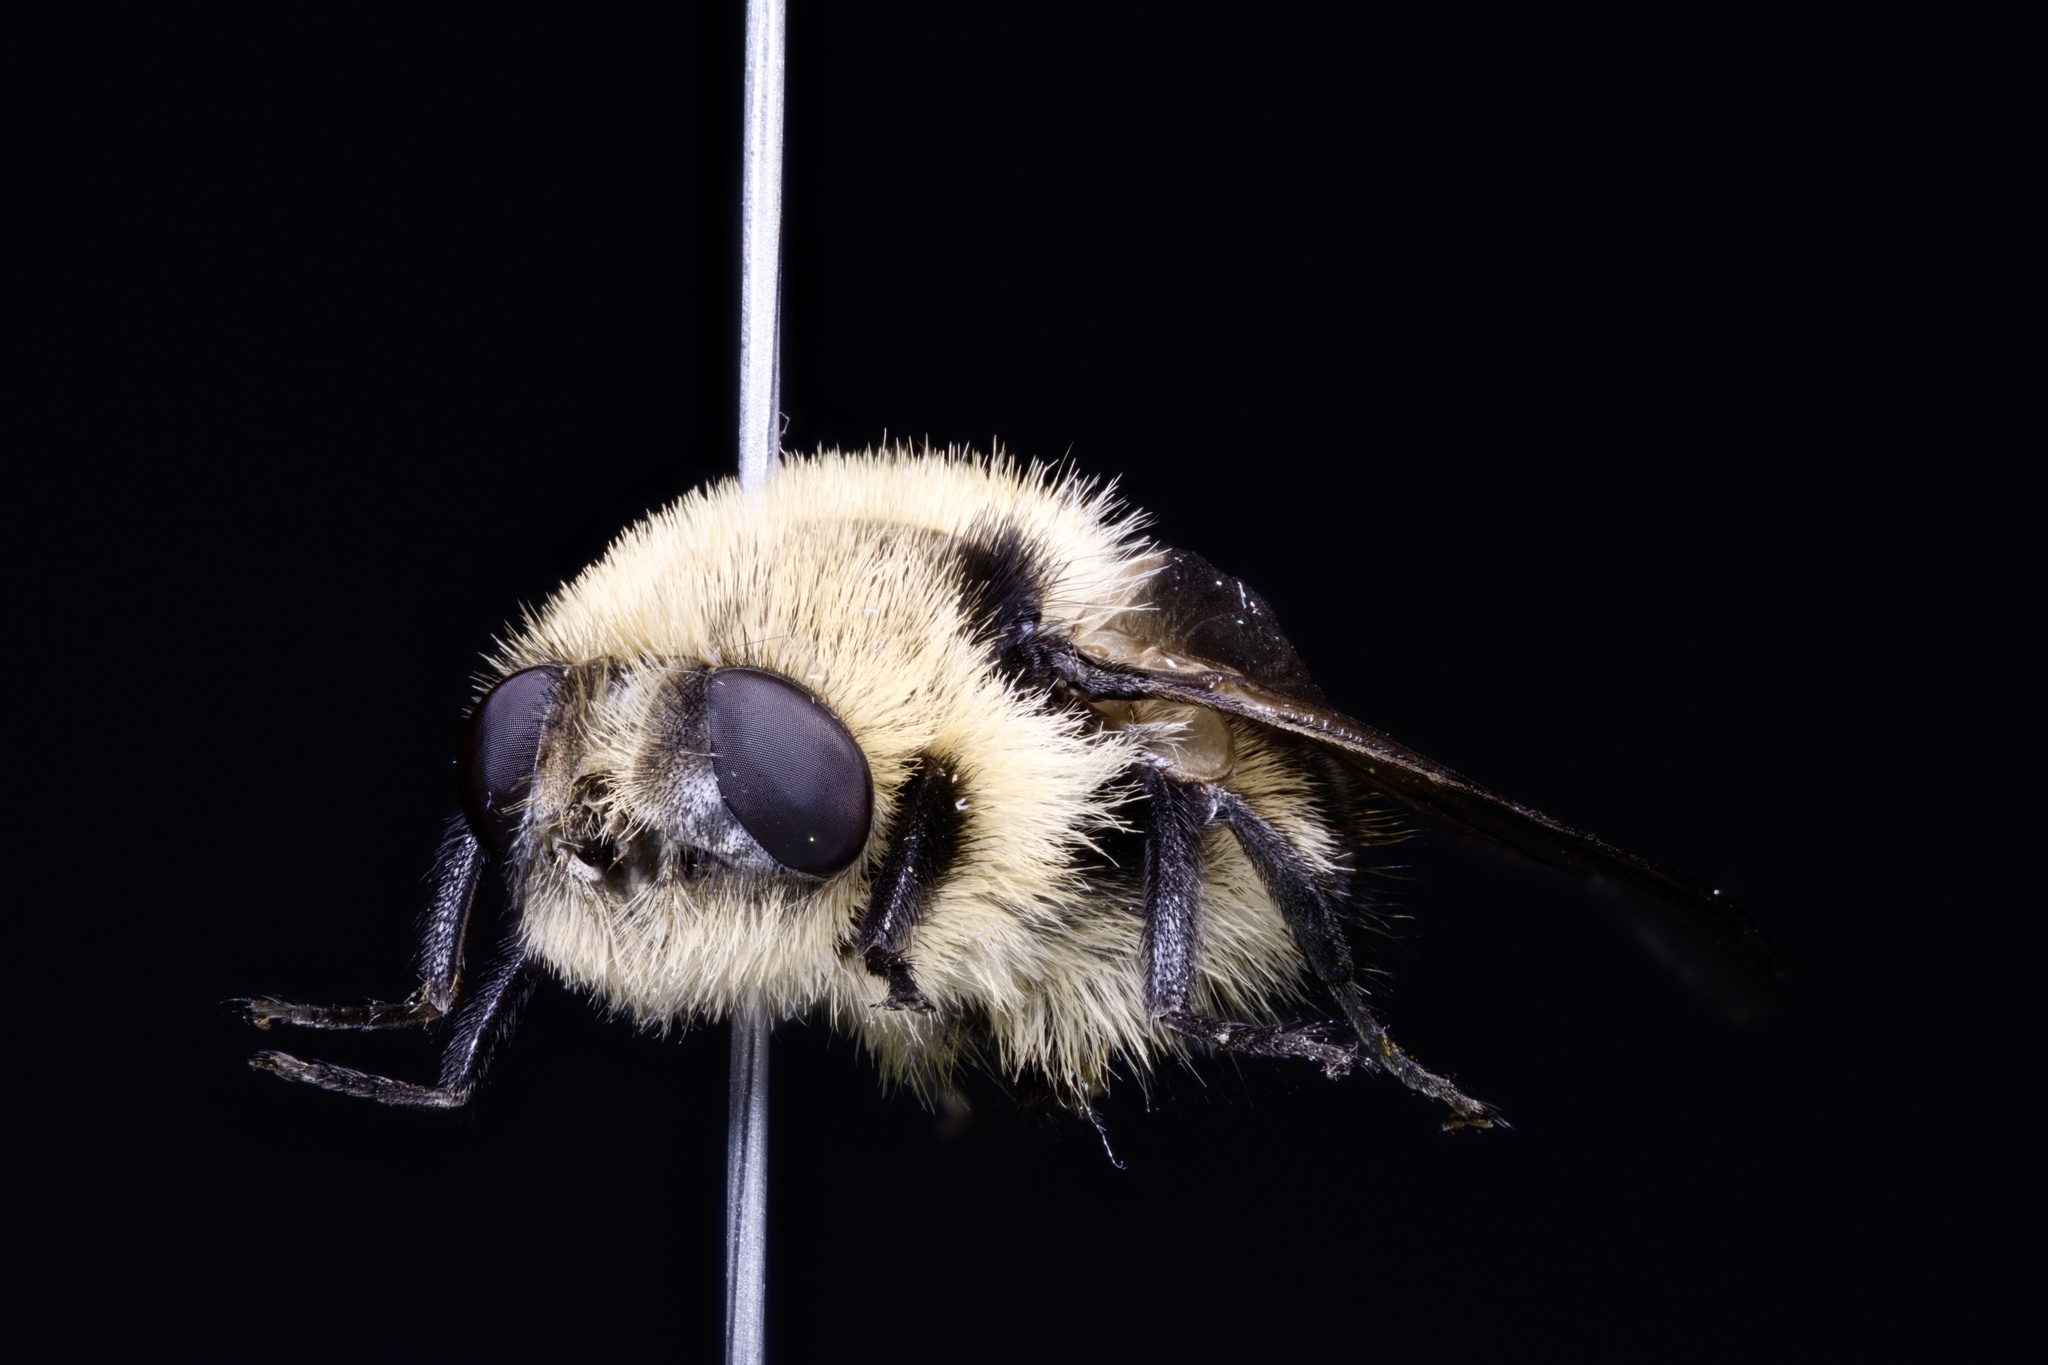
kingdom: Animalia
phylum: Arthropoda
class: Insecta
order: Diptera
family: Oestridae
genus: Cephenemyia
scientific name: Cephenemyia phobifer
